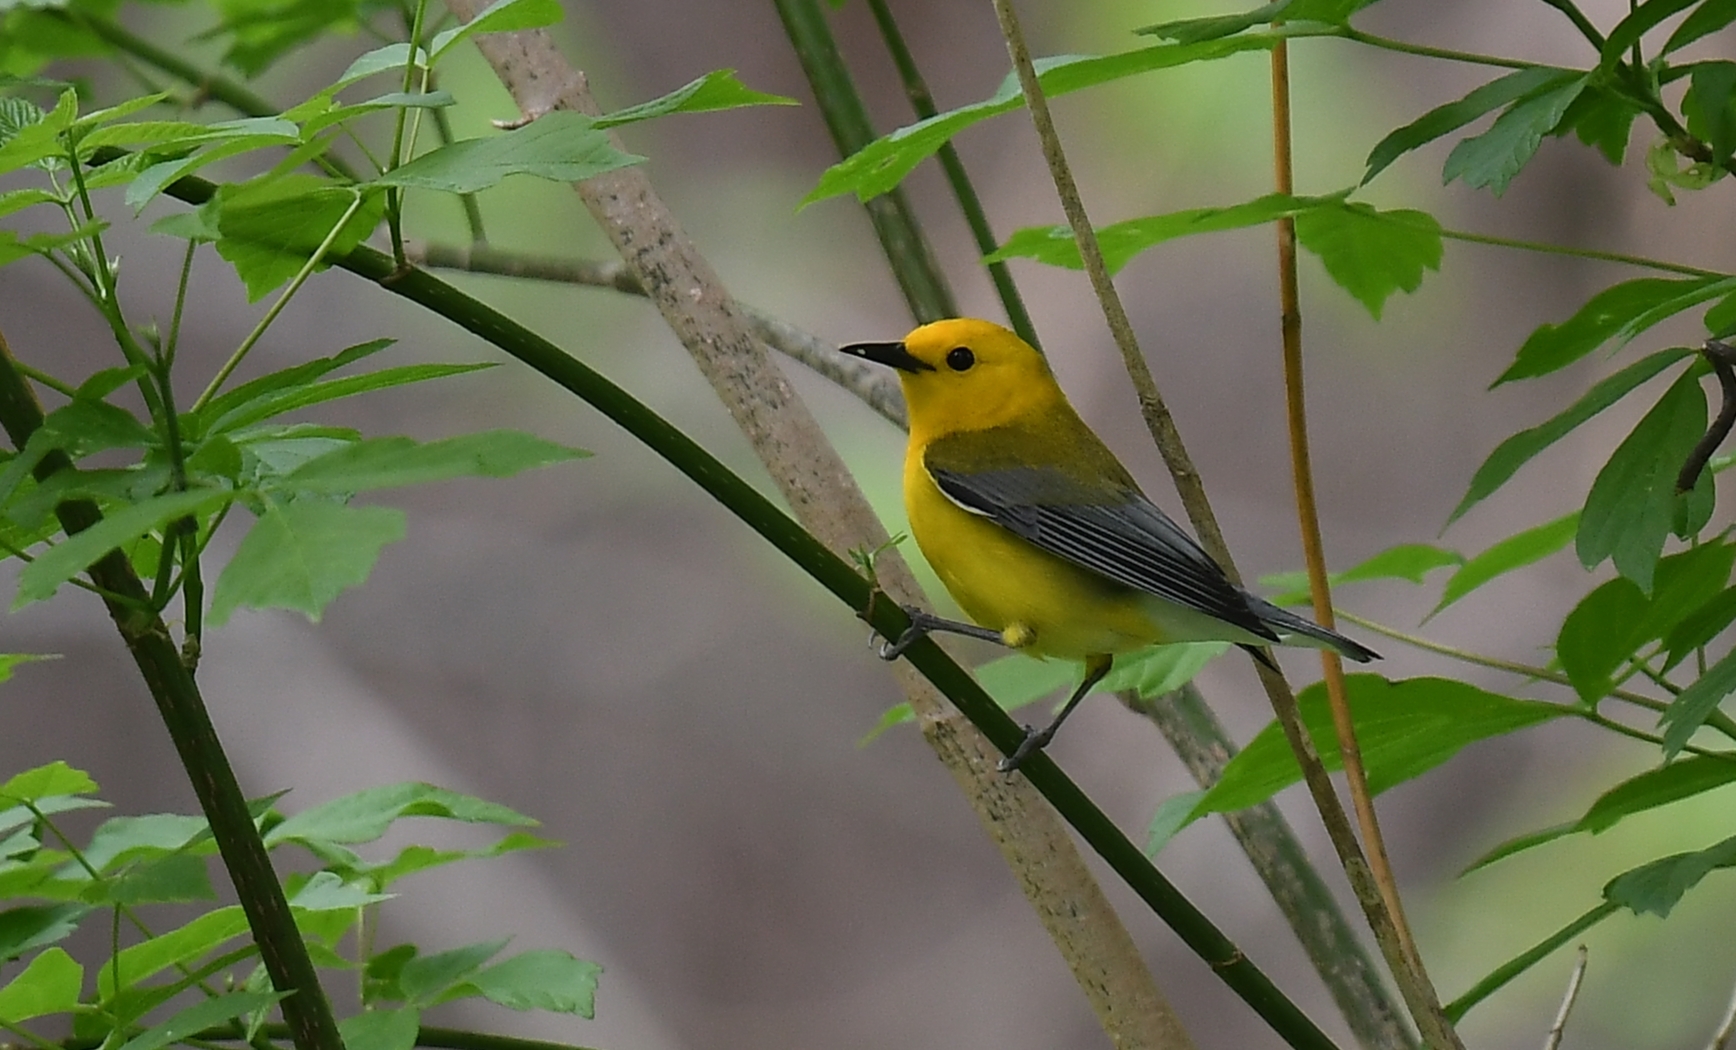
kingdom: Animalia
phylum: Chordata
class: Aves
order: Passeriformes
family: Parulidae
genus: Protonotaria
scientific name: Protonotaria citrea
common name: Prothonotary warbler
